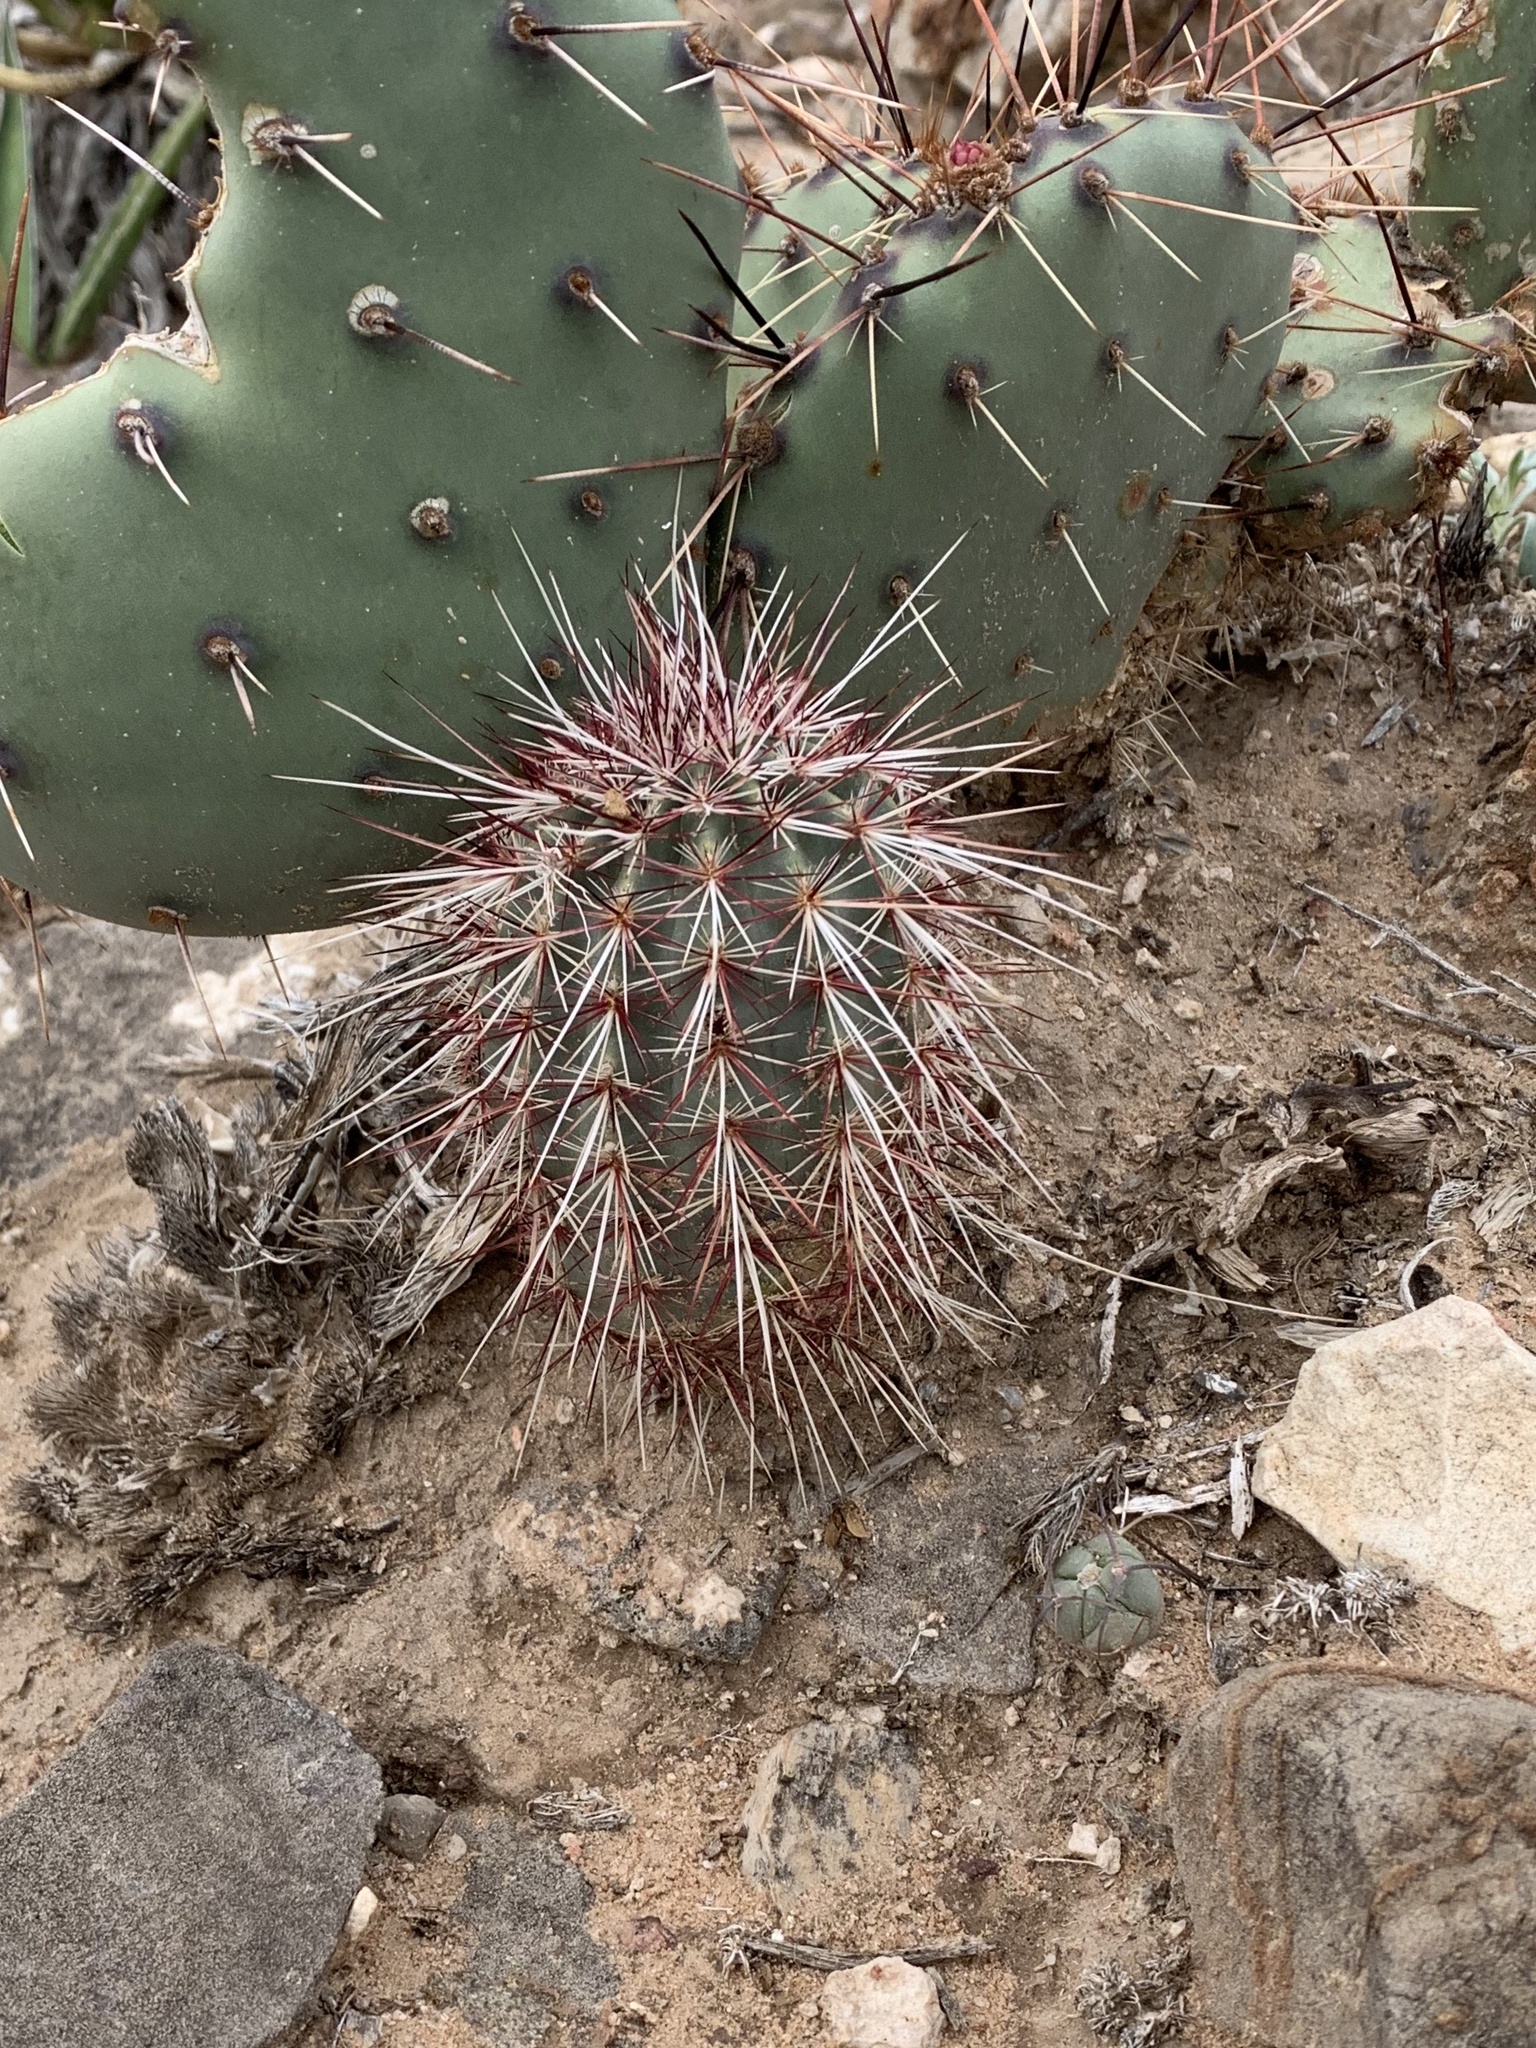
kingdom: Plantae
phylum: Tracheophyta
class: Magnoliopsida
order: Caryophyllales
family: Cactaceae
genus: Echinocereus
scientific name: Echinocereus viridiflorus
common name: Nylon hedgehog cactus
